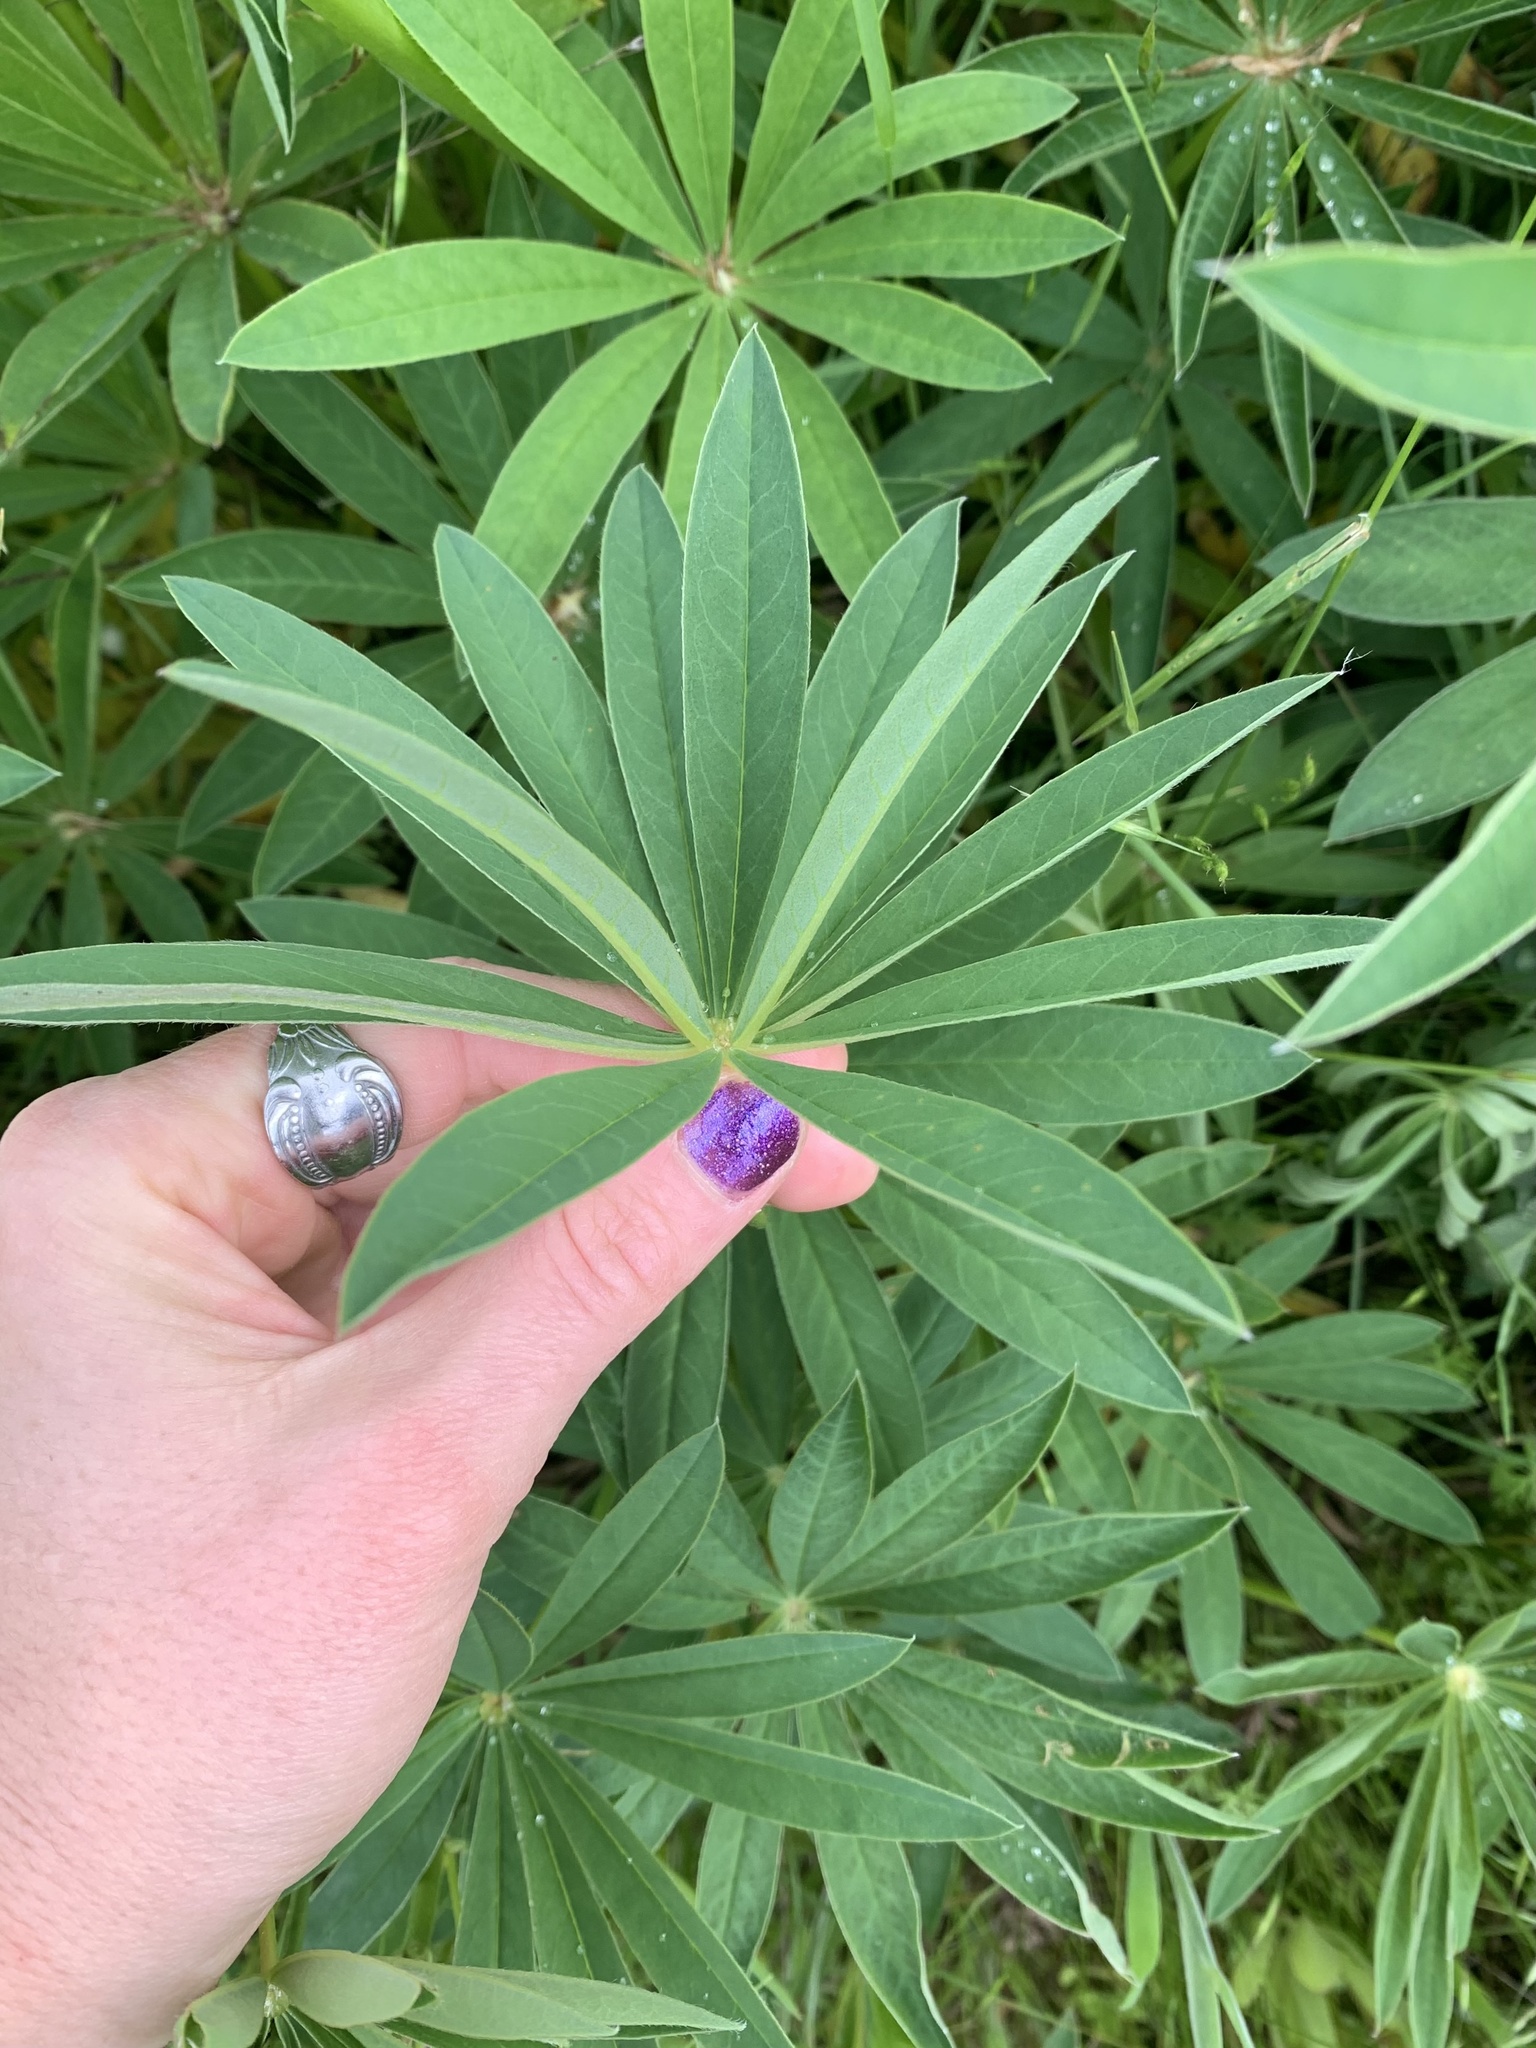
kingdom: Plantae
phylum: Tracheophyta
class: Magnoliopsida
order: Fabales
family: Fabaceae
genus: Lupinus
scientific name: Lupinus polyphyllus
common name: Garden lupin
